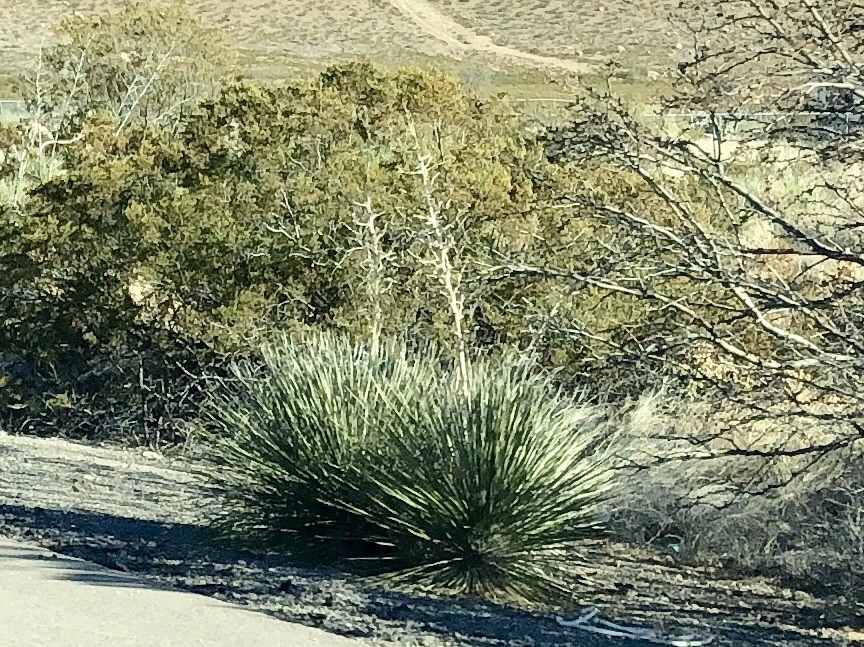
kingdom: Plantae
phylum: Tracheophyta
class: Liliopsida
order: Asparagales
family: Asparagaceae
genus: Yucca
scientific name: Yucca elata
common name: Palmella
